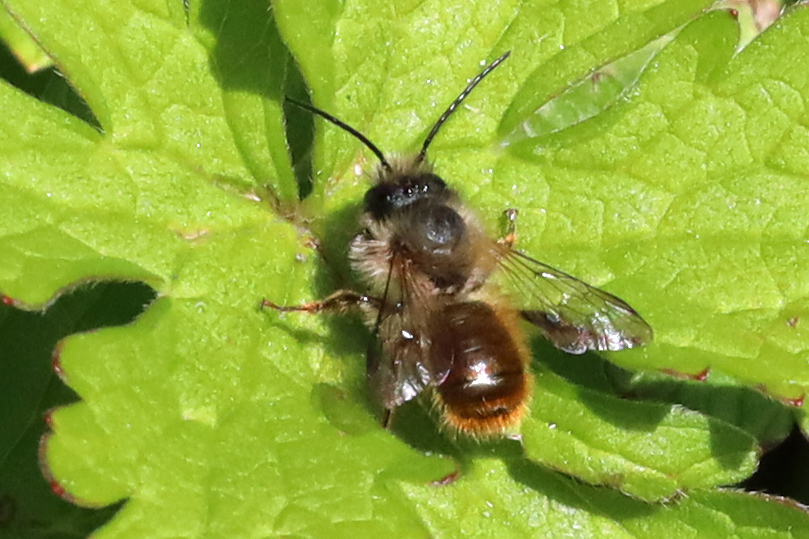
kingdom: Animalia
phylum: Arthropoda
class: Insecta
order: Hymenoptera
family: Megachilidae
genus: Osmia
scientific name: Osmia bicornis
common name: Red mason bee
